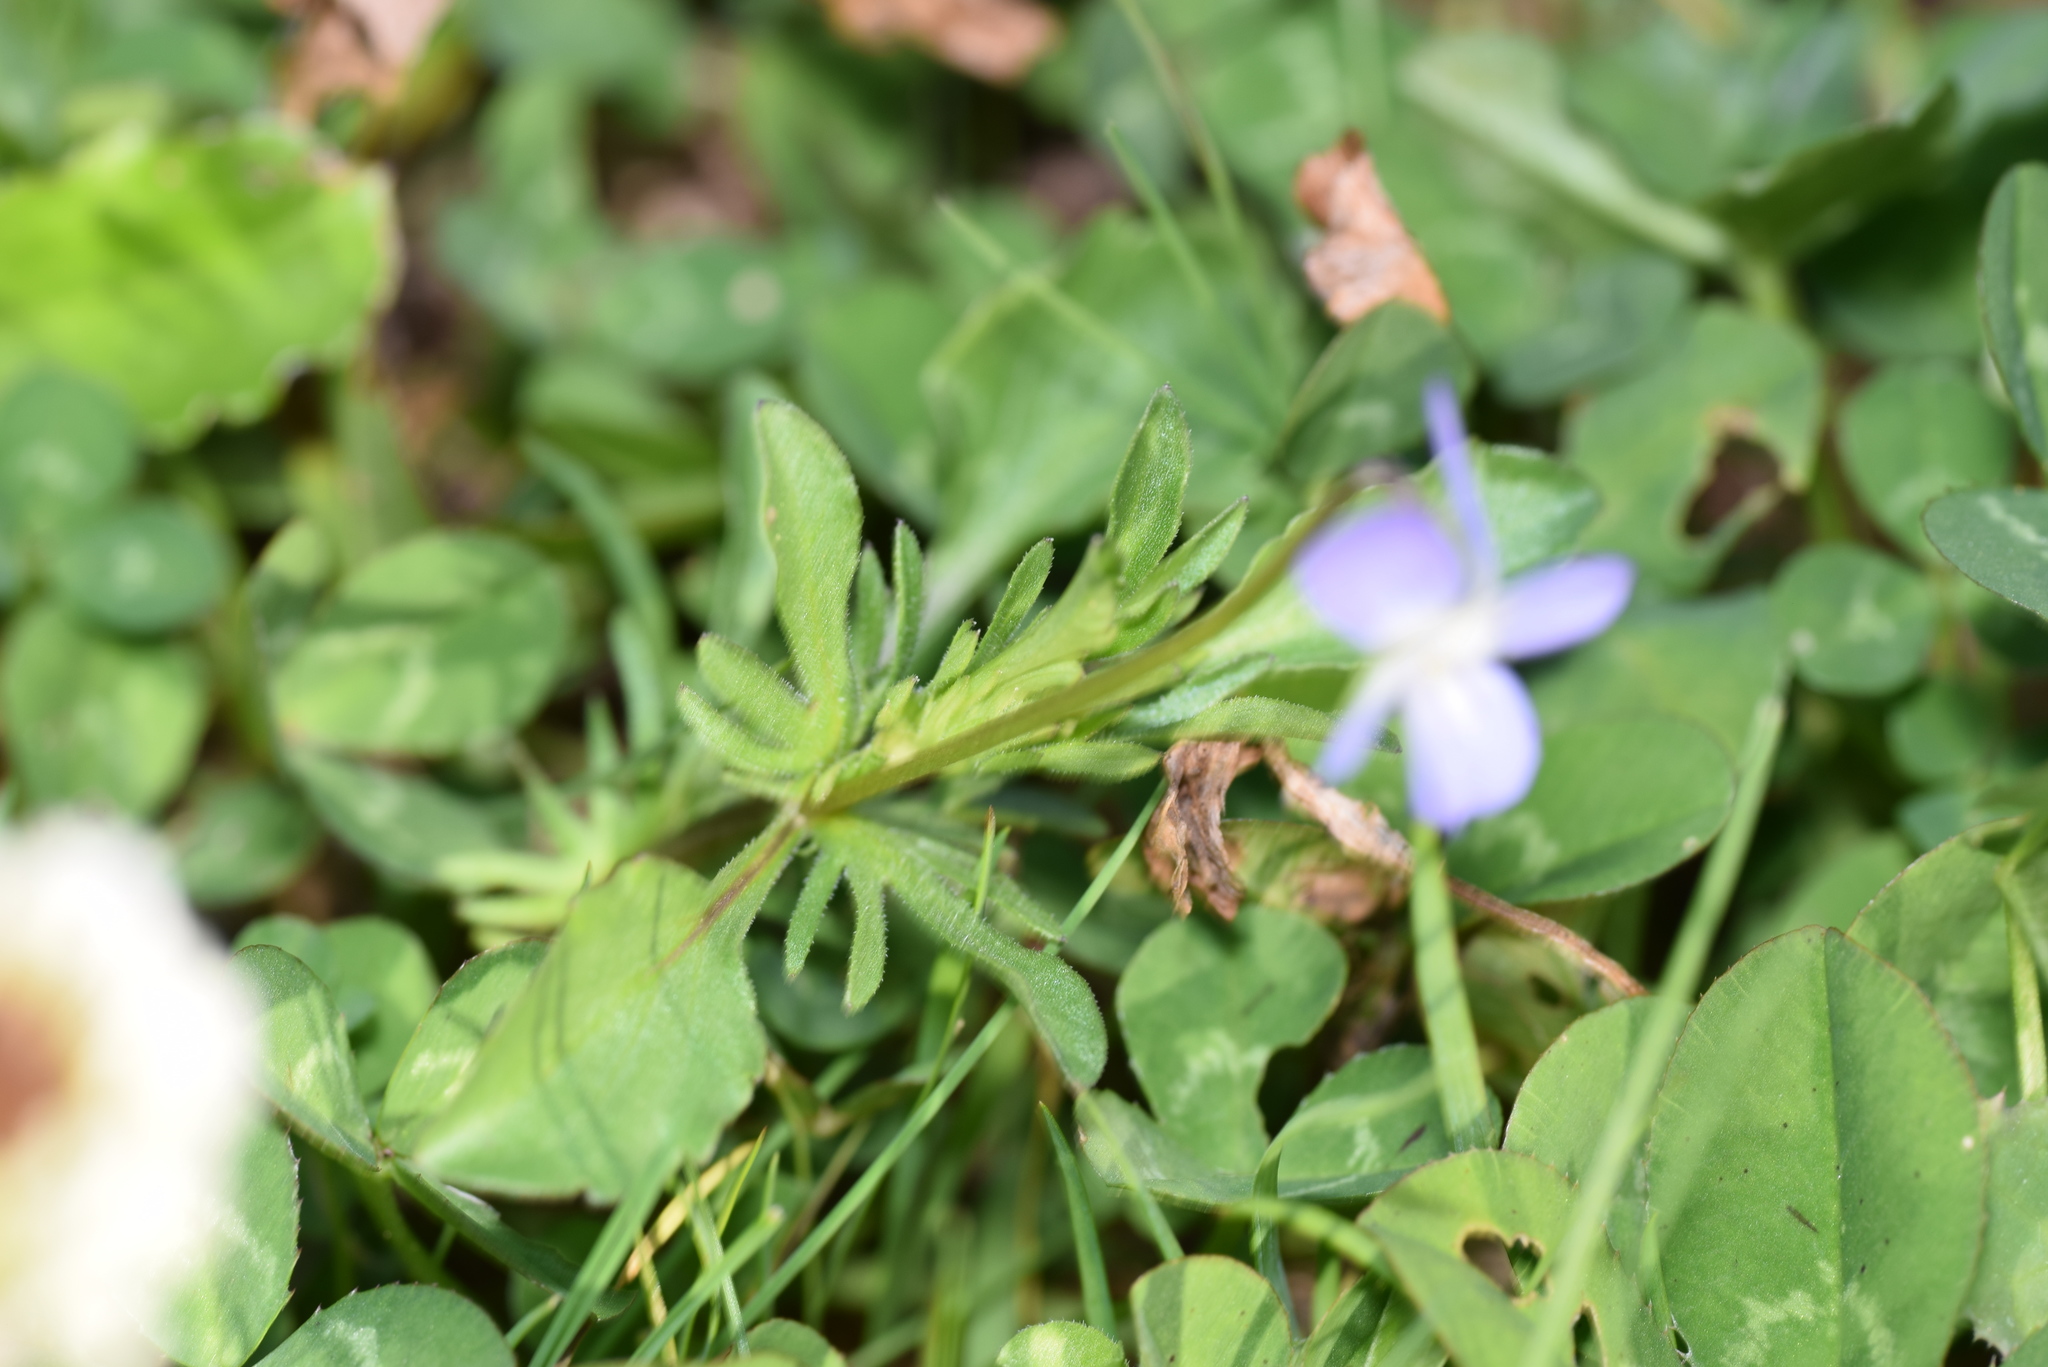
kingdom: Plantae
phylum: Tracheophyta
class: Magnoliopsida
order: Malpighiales
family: Violaceae
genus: Viola
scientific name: Viola rafinesquei
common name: American field pansy
